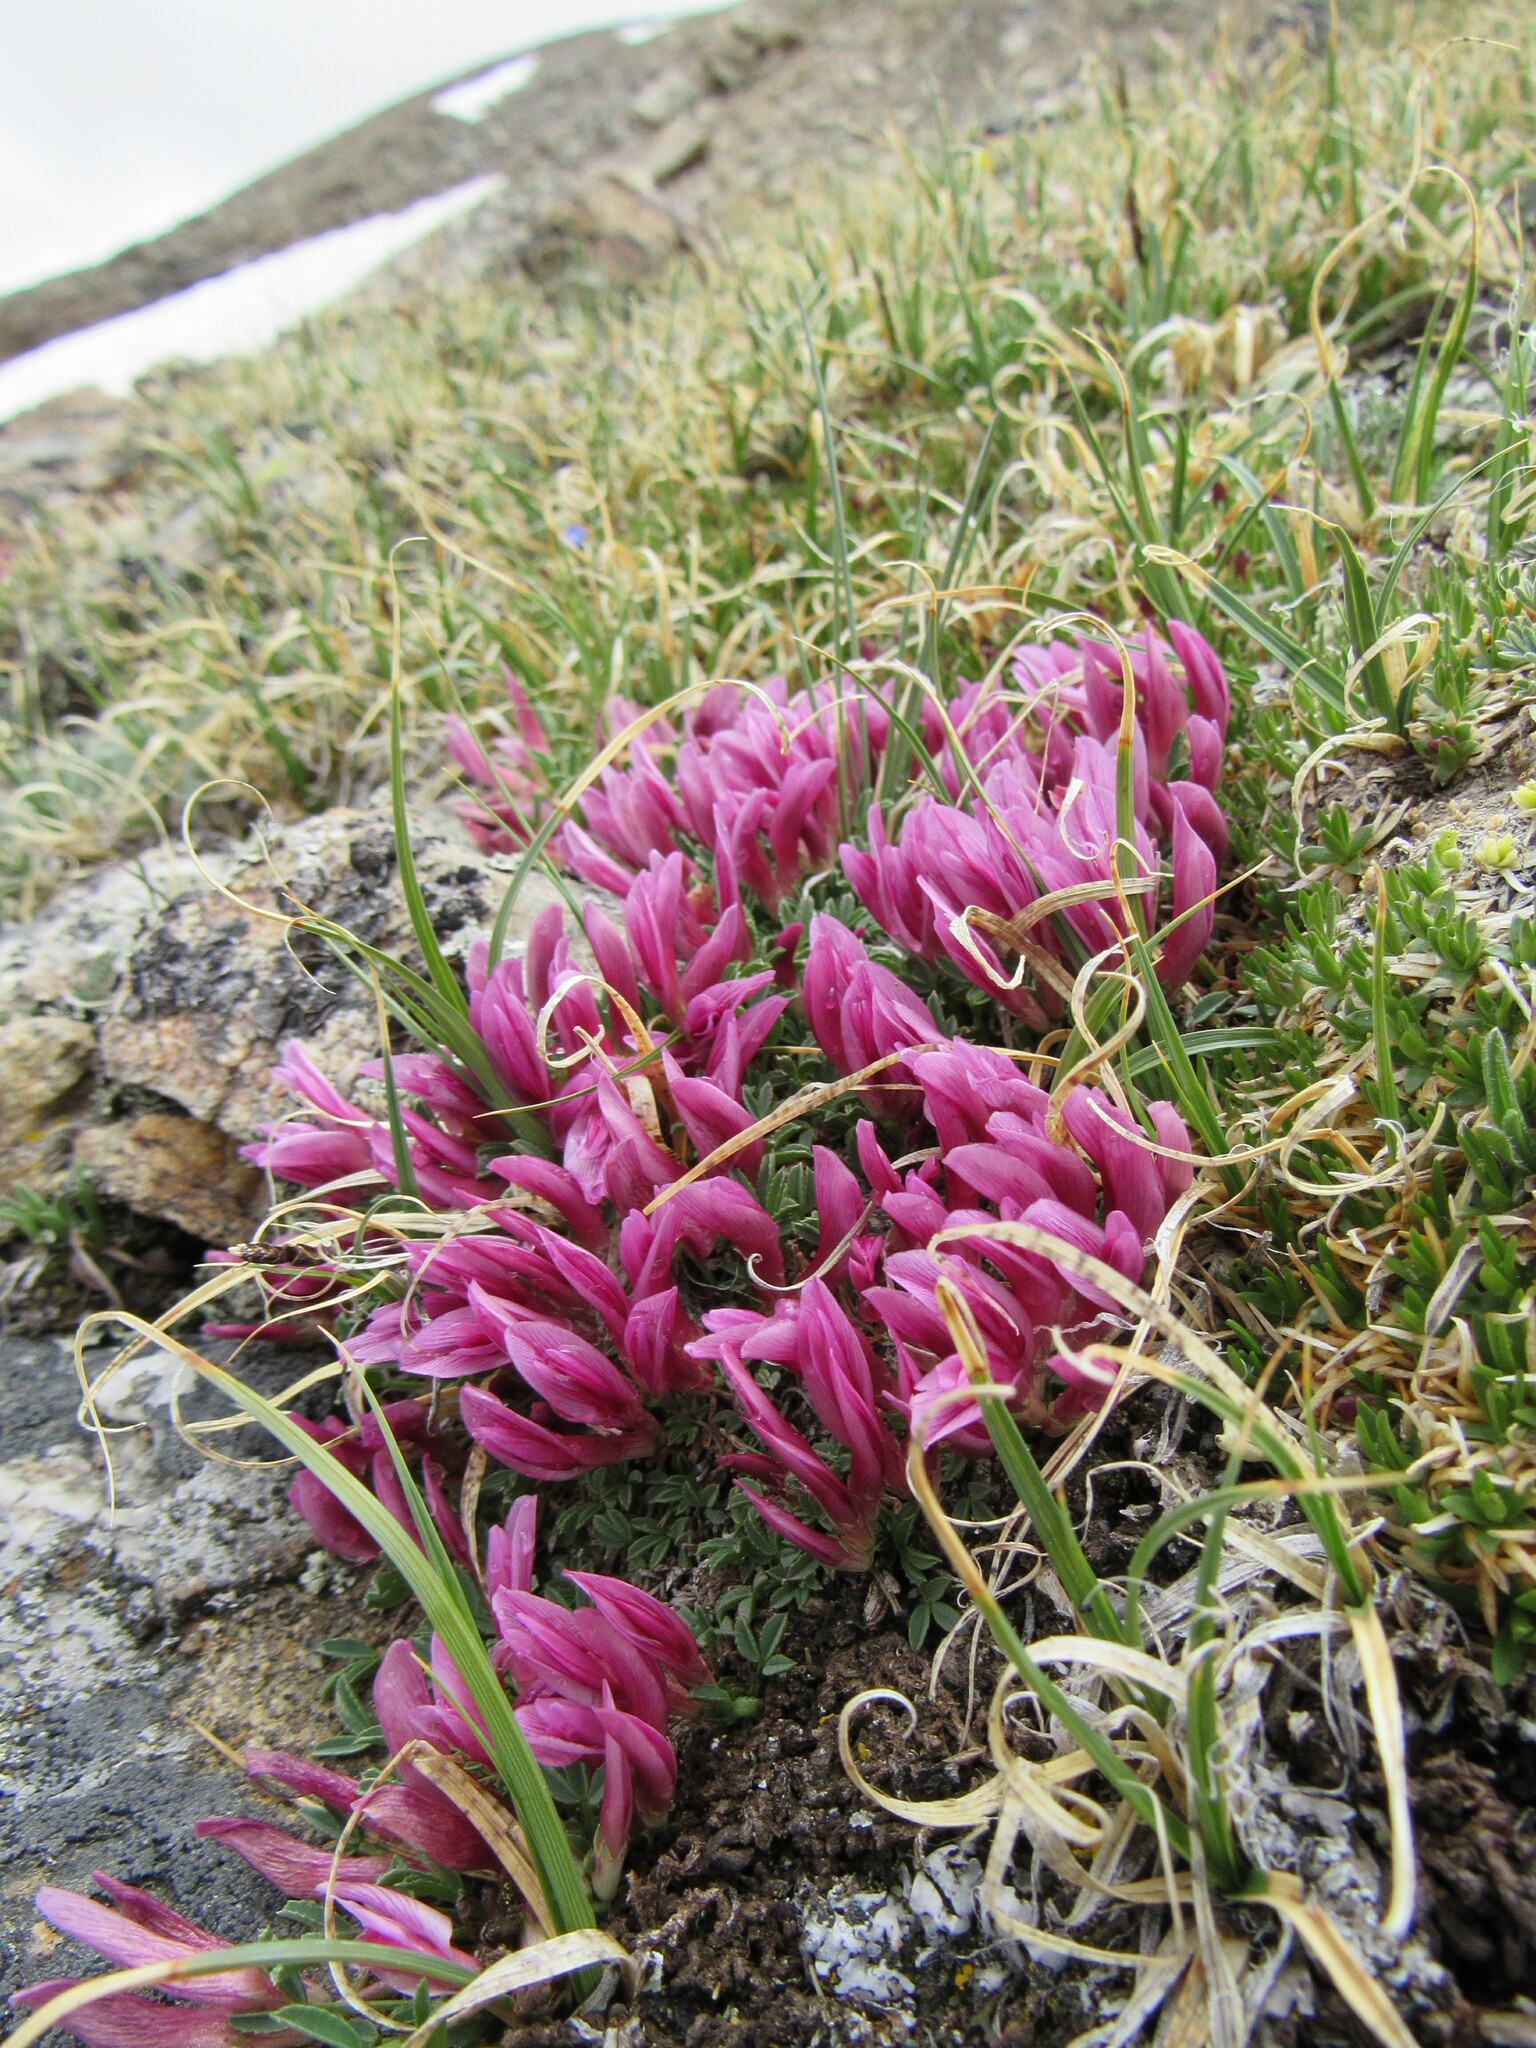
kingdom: Plantae
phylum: Tracheophyta
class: Magnoliopsida
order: Fabales
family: Fabaceae
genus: Trifolium
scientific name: Trifolium nanum
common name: Tundra clover
